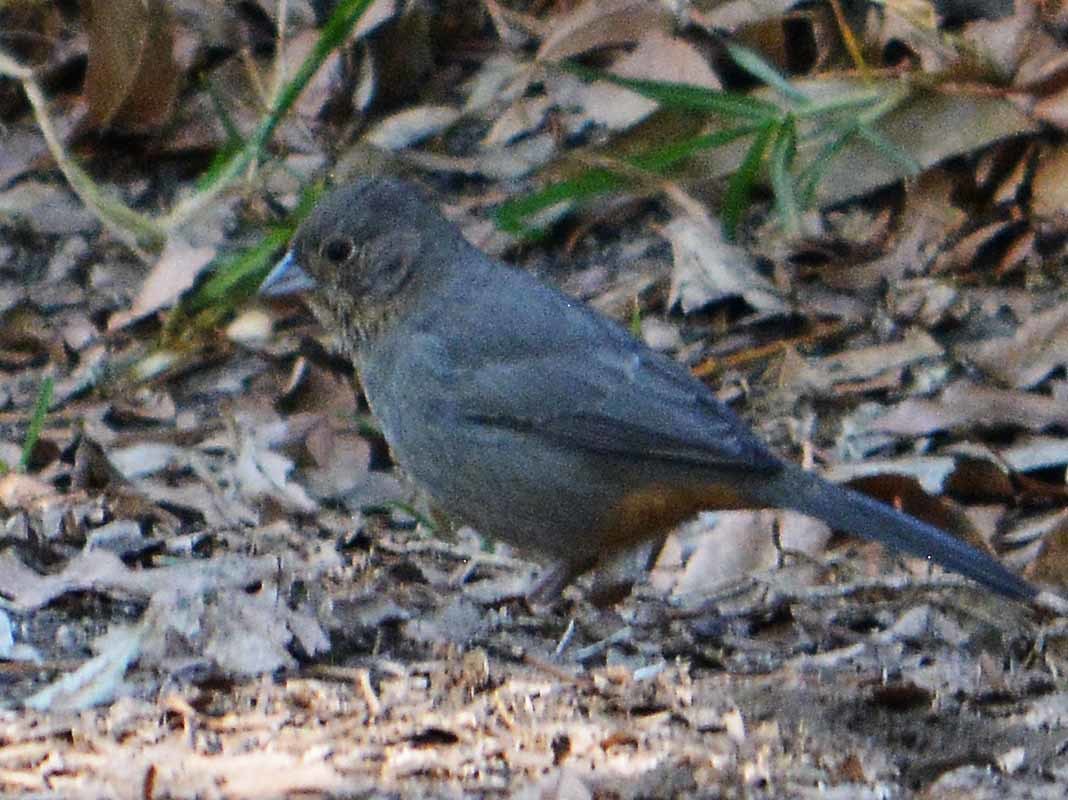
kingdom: Animalia
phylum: Chordata
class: Aves
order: Passeriformes
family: Passerellidae
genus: Melozone
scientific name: Melozone fusca
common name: Canyon towhee
